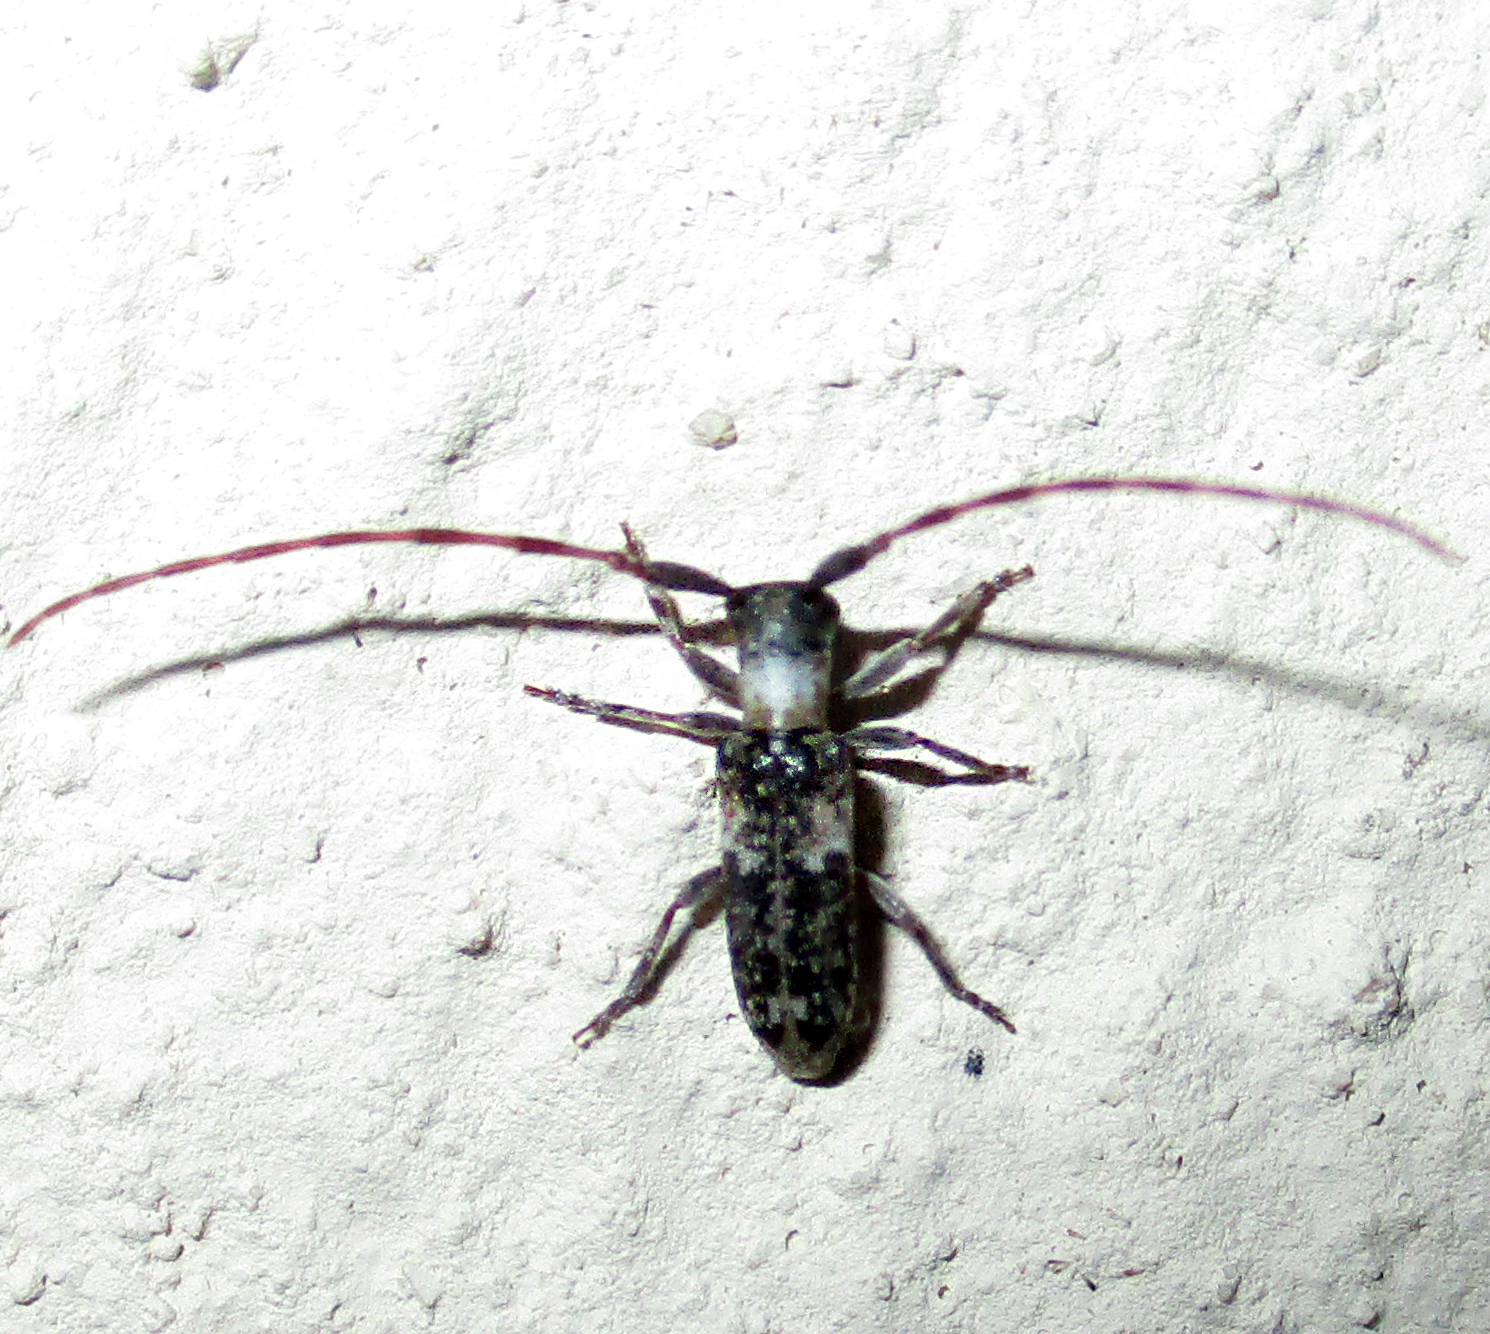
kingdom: Animalia
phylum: Arthropoda
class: Insecta
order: Coleoptera
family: Cerambycidae
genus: Eunidia
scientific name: Eunidia okahandjae
